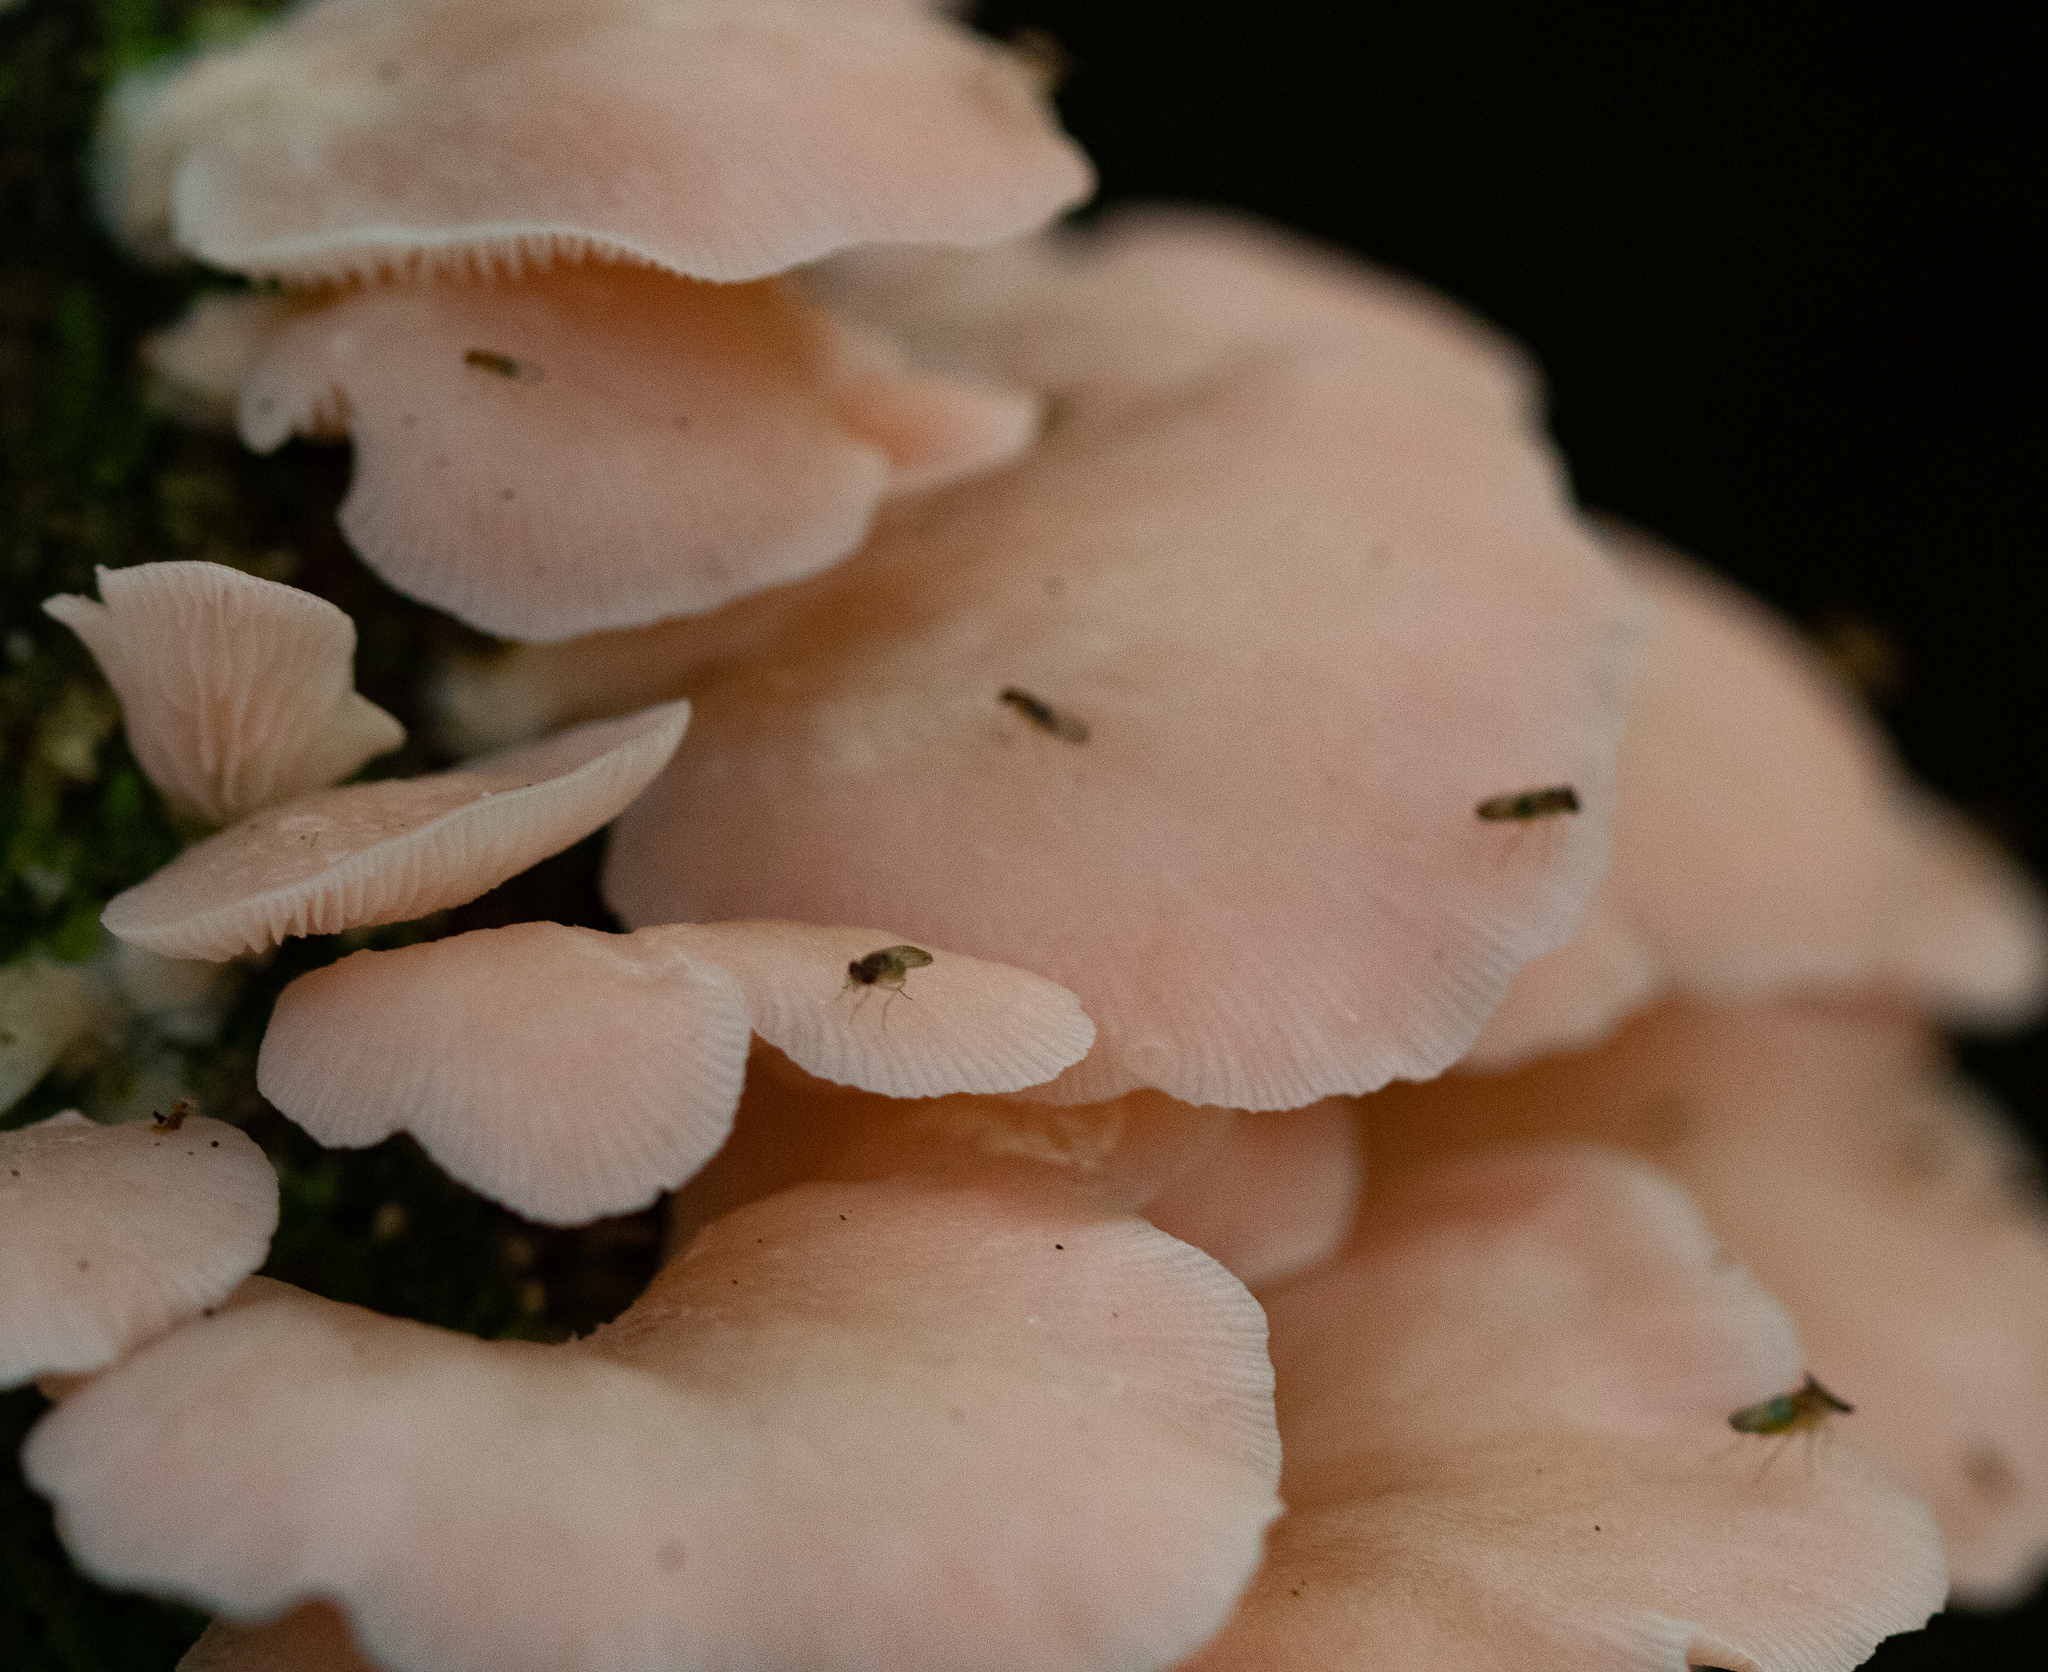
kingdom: Fungi
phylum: Basidiomycota
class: Agaricomycetes
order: Agaricales
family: Pleurotaceae
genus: Pleurotus
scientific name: Pleurotus djamor
